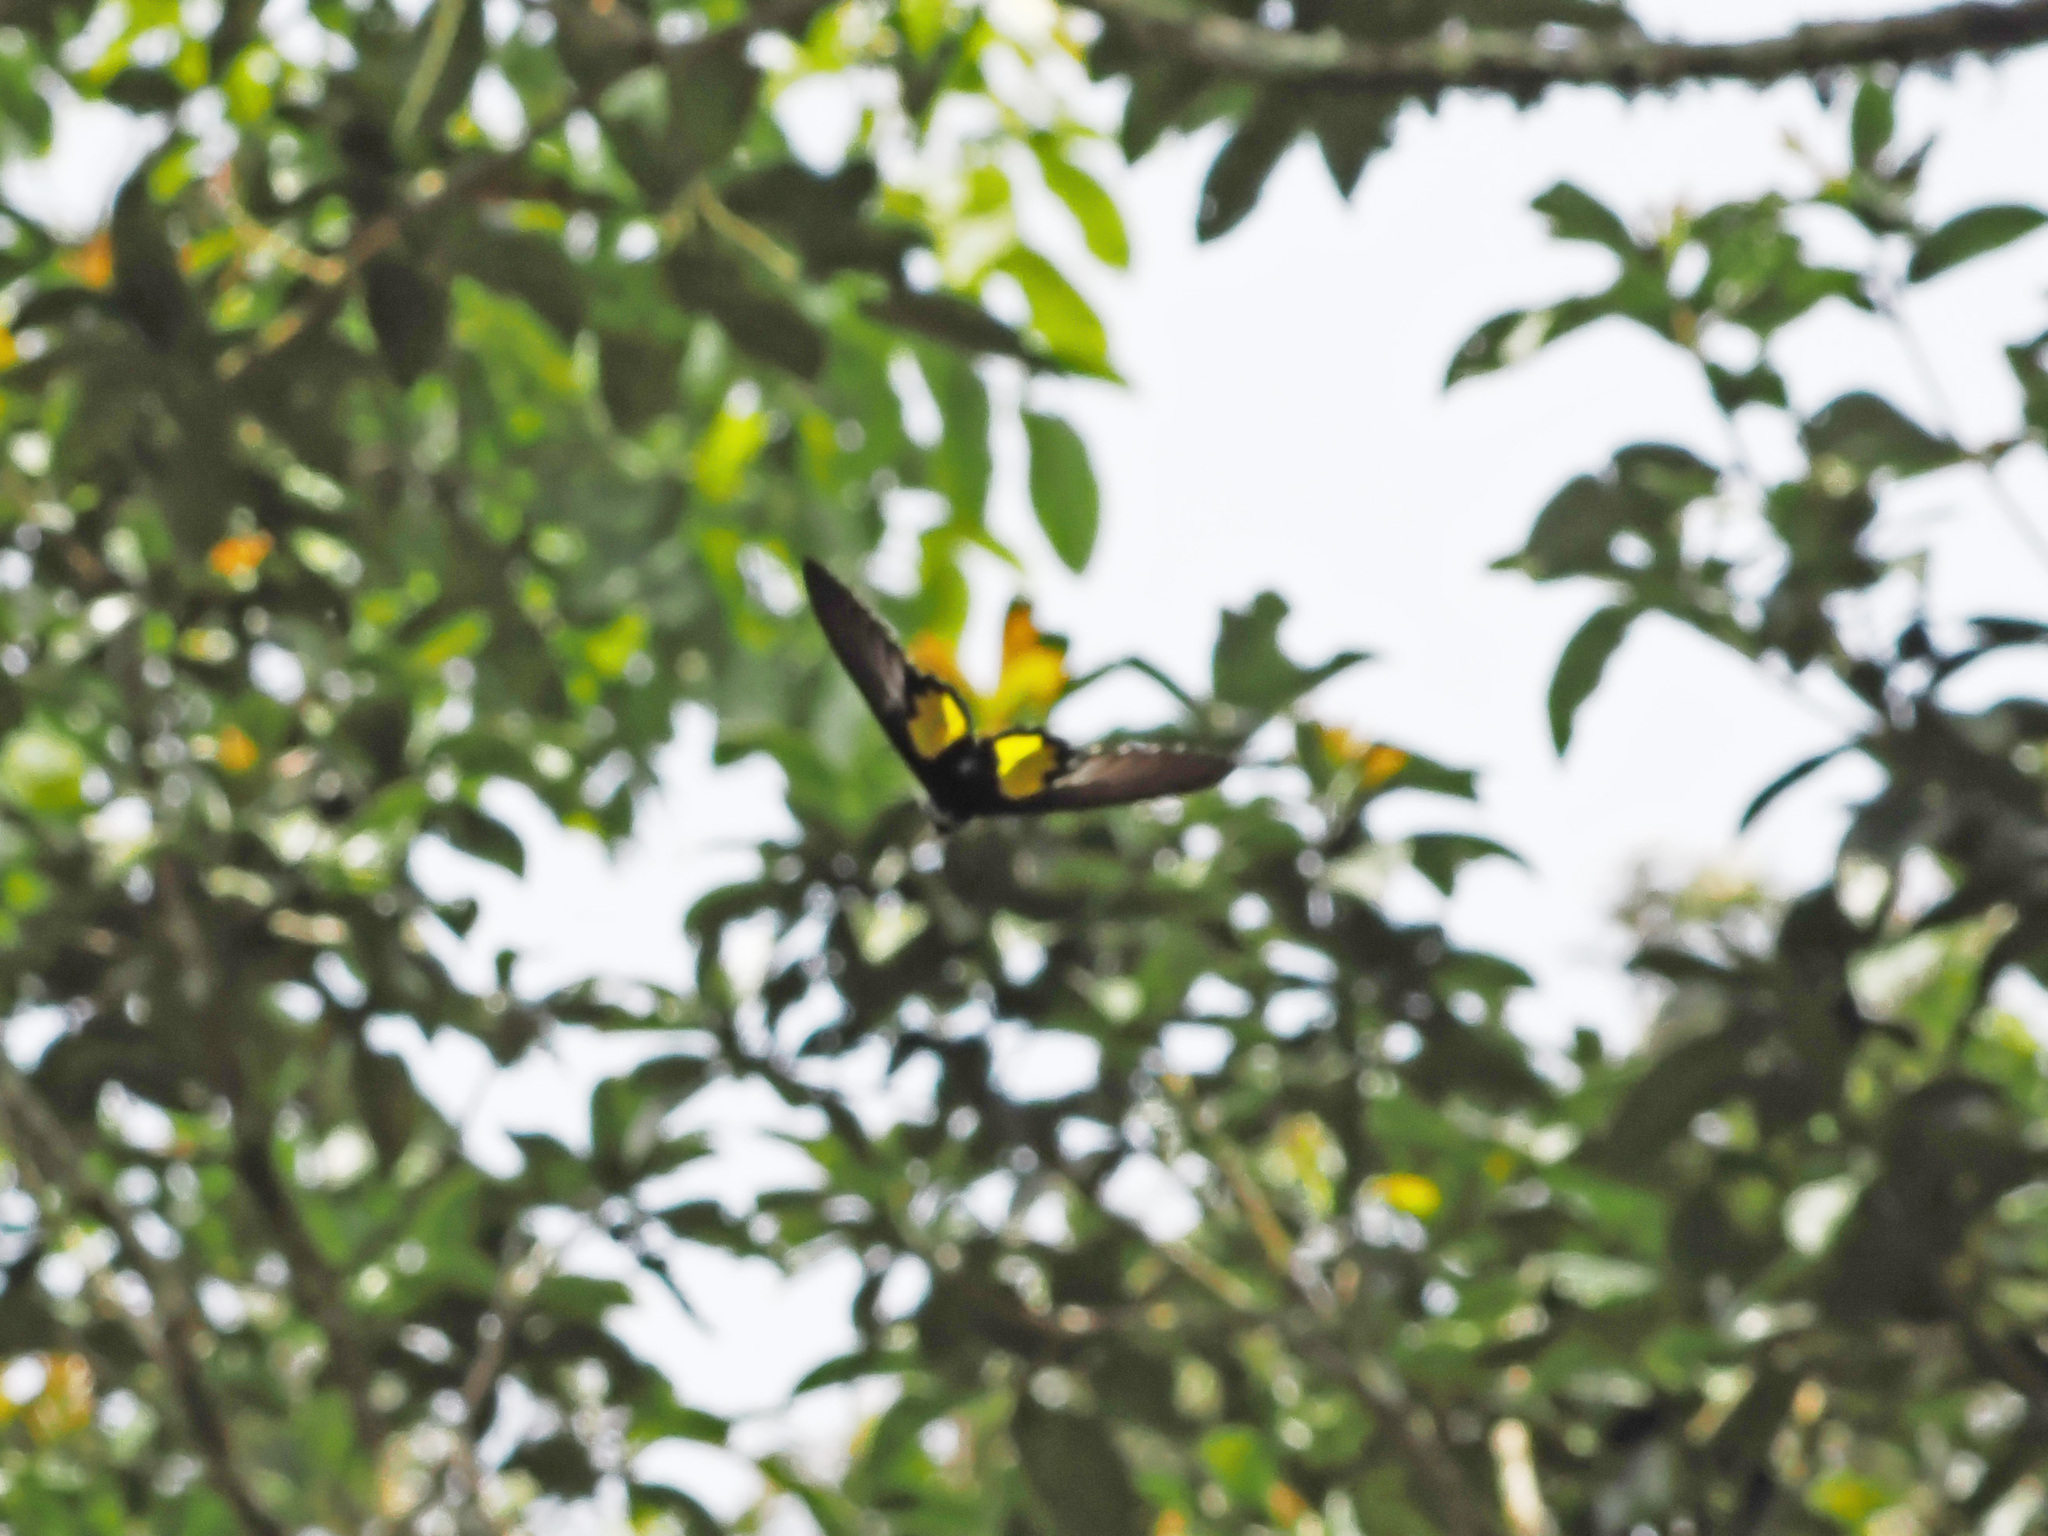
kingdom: Animalia
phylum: Arthropoda
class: Insecta
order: Lepidoptera
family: Papilionidae
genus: Troides
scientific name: Troides vandepolli
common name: Van de poll’s birdwing
